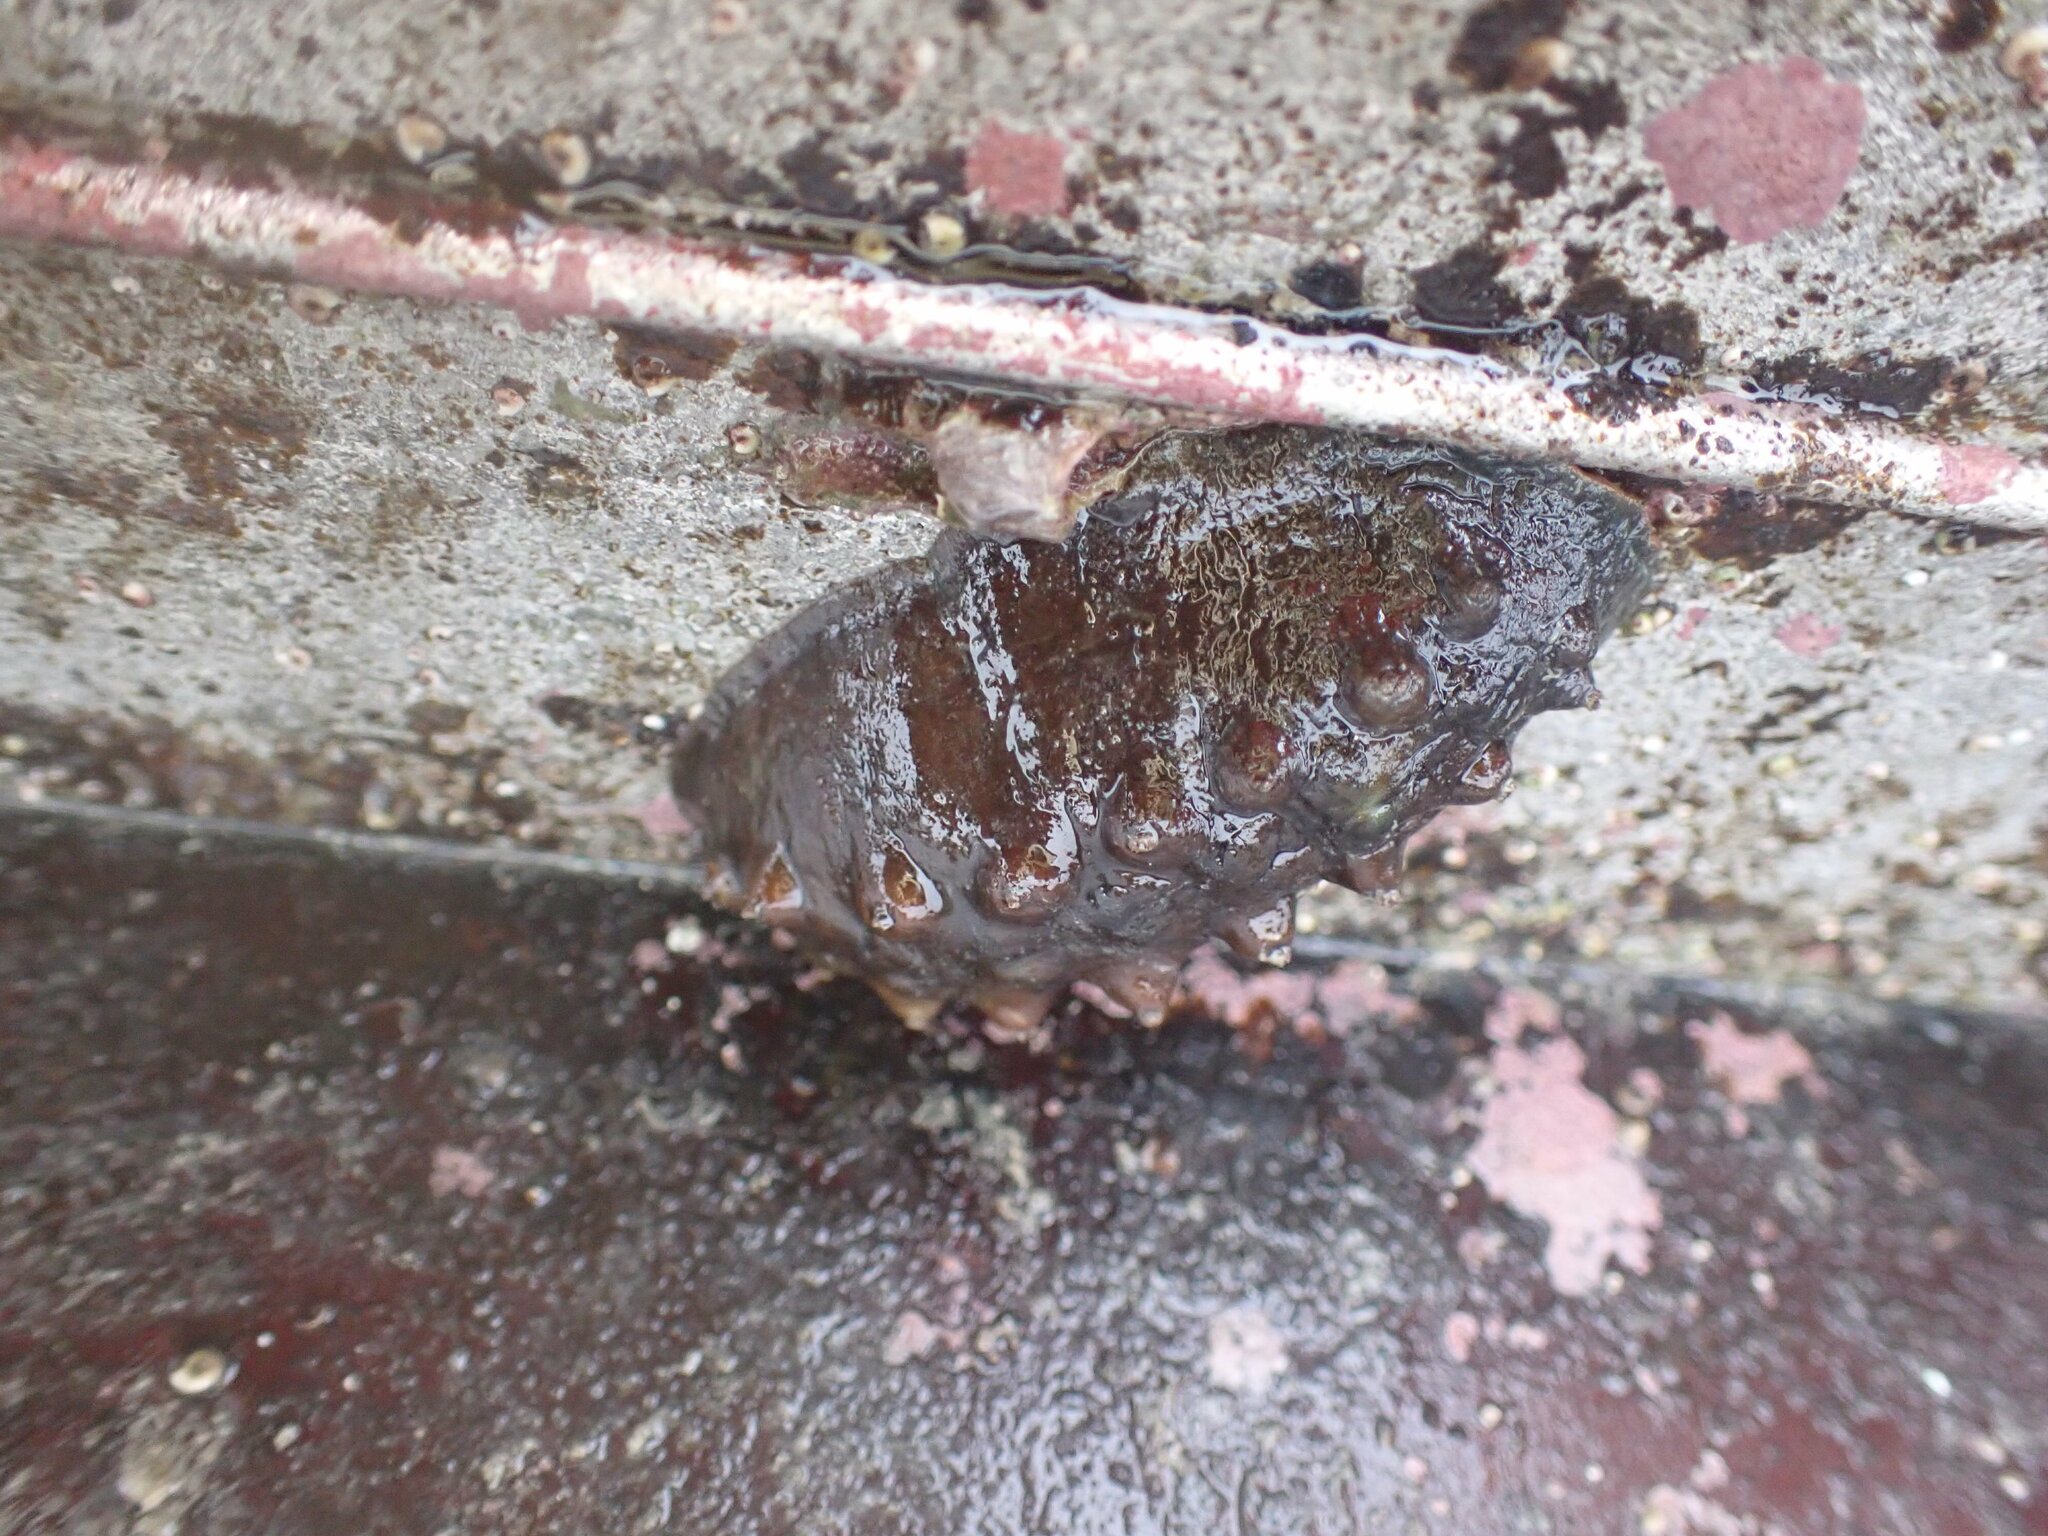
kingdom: Animalia
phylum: Mollusca
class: Polyplacophora
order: Chitonida
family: Acanthochitonidae
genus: Cryptoconchus
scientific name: Cryptoconchus porosus
